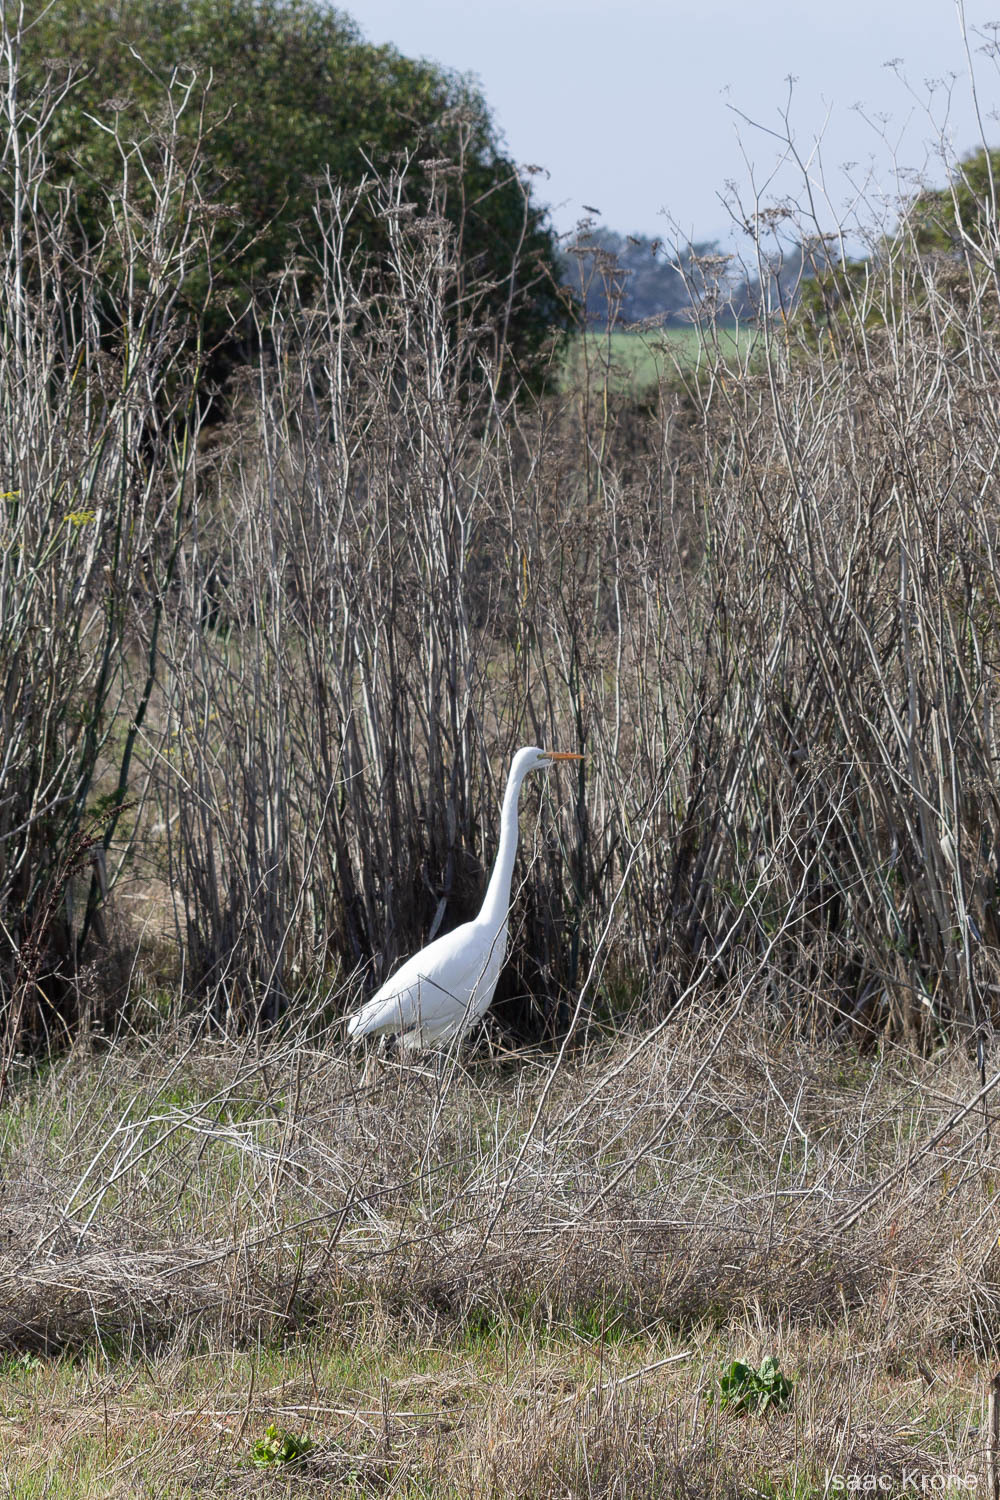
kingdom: Animalia
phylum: Chordata
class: Aves
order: Pelecaniformes
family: Ardeidae
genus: Ardea
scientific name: Ardea alba
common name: Great egret
